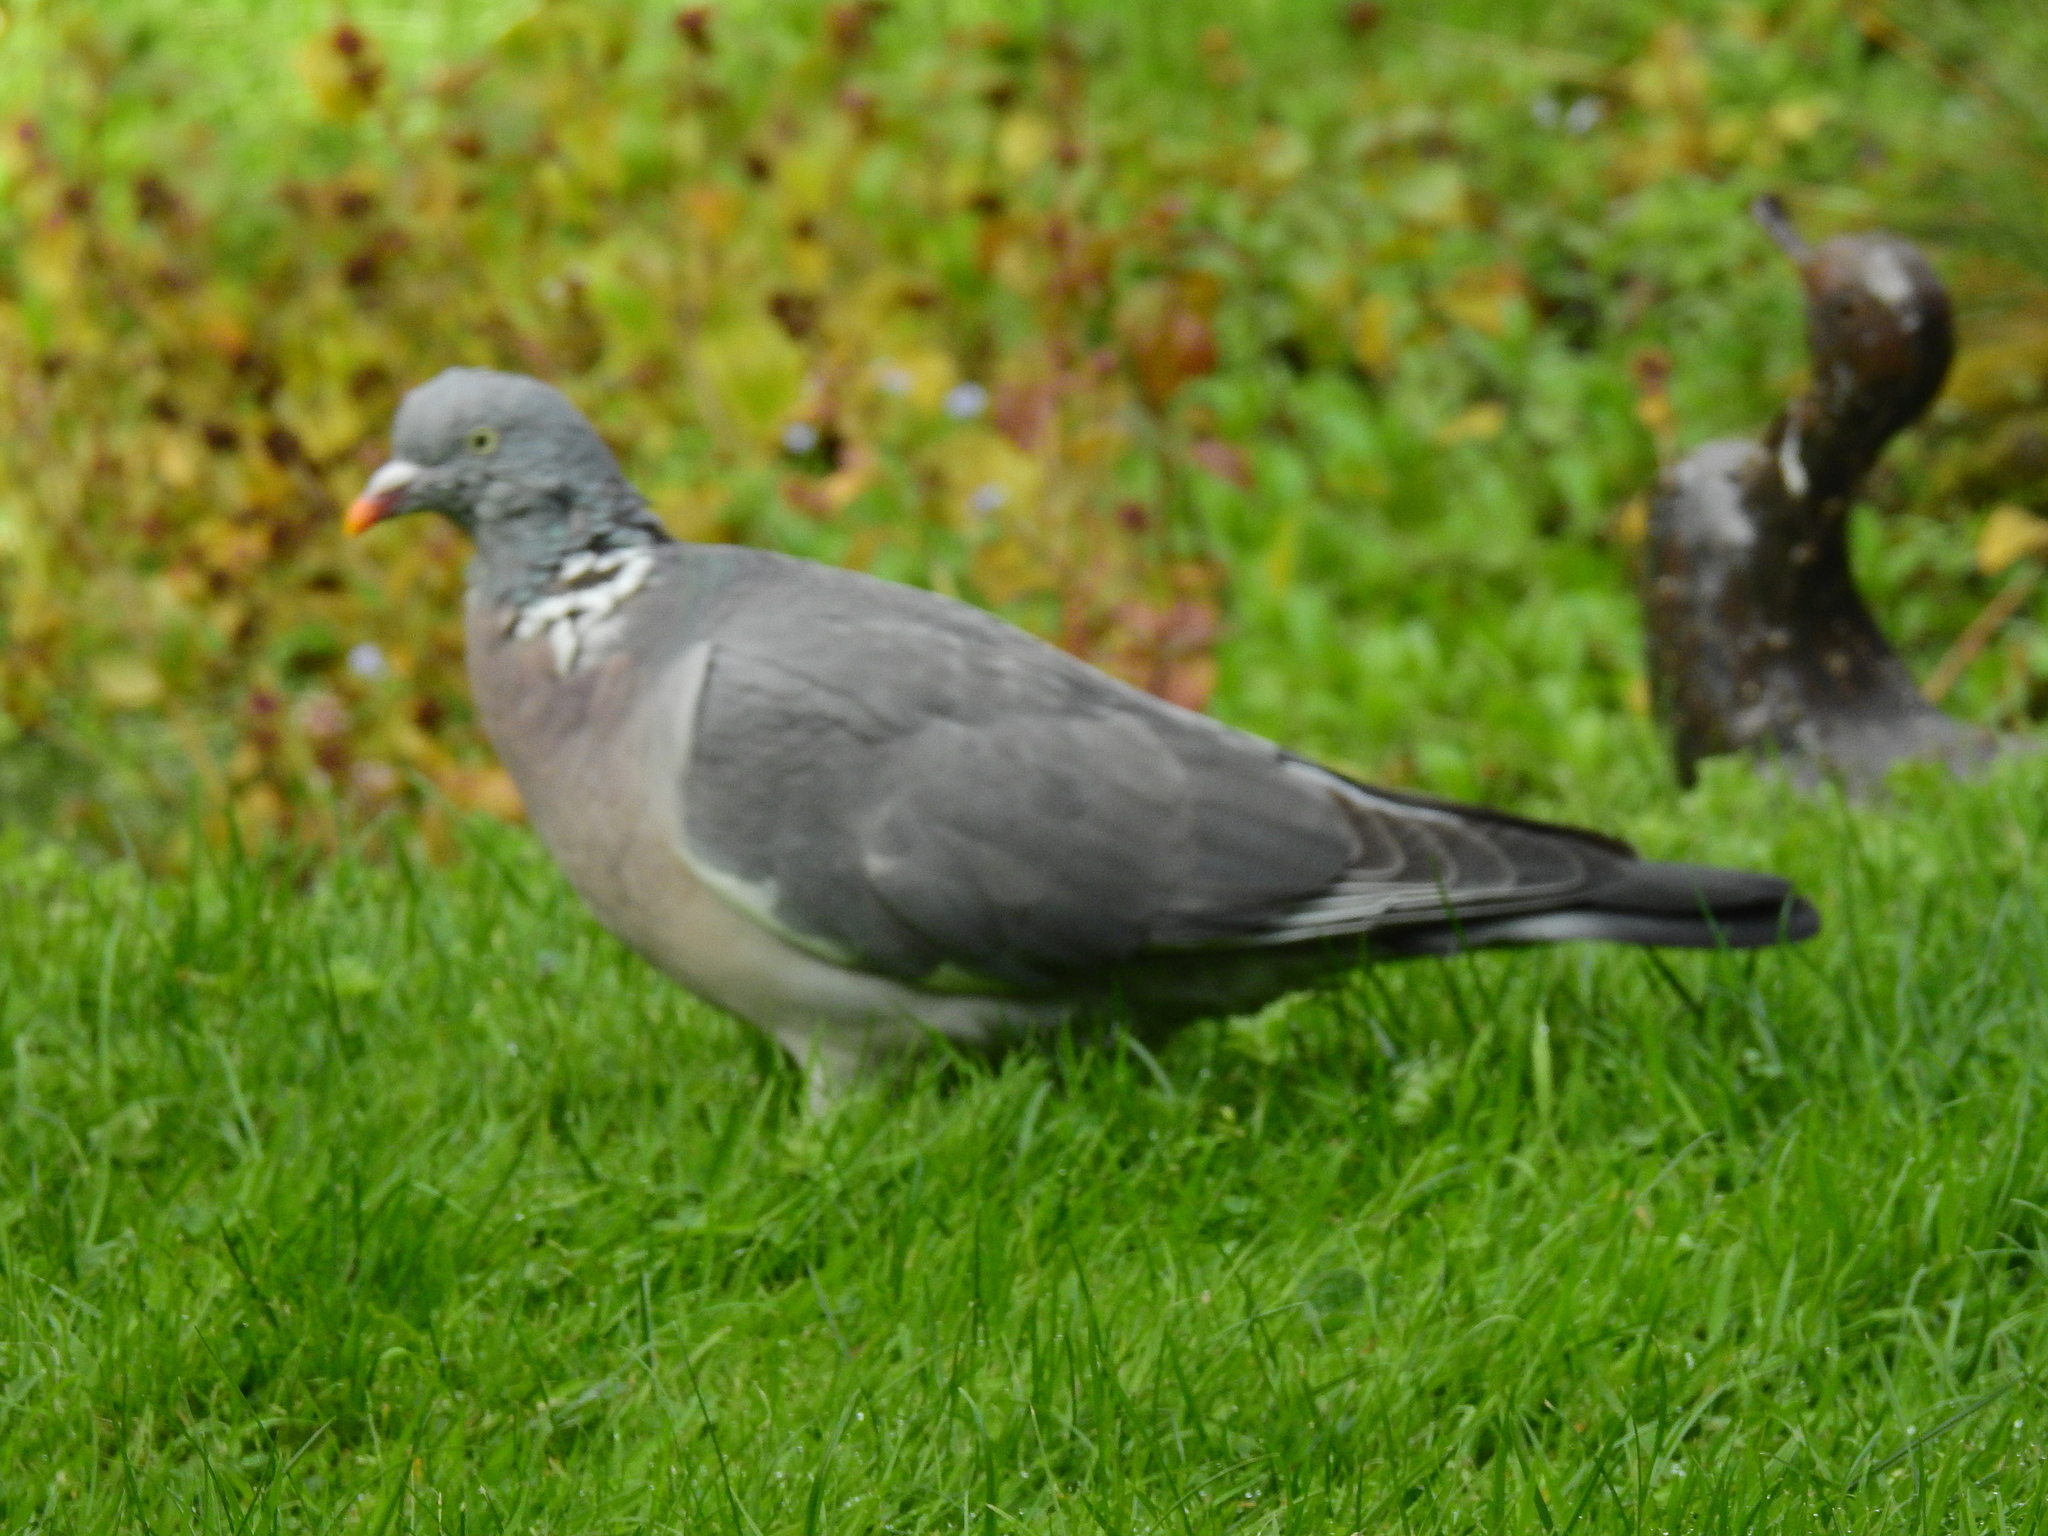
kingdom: Animalia
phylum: Chordata
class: Aves
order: Columbiformes
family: Columbidae
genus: Columba
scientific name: Columba palumbus
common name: Common wood pigeon
